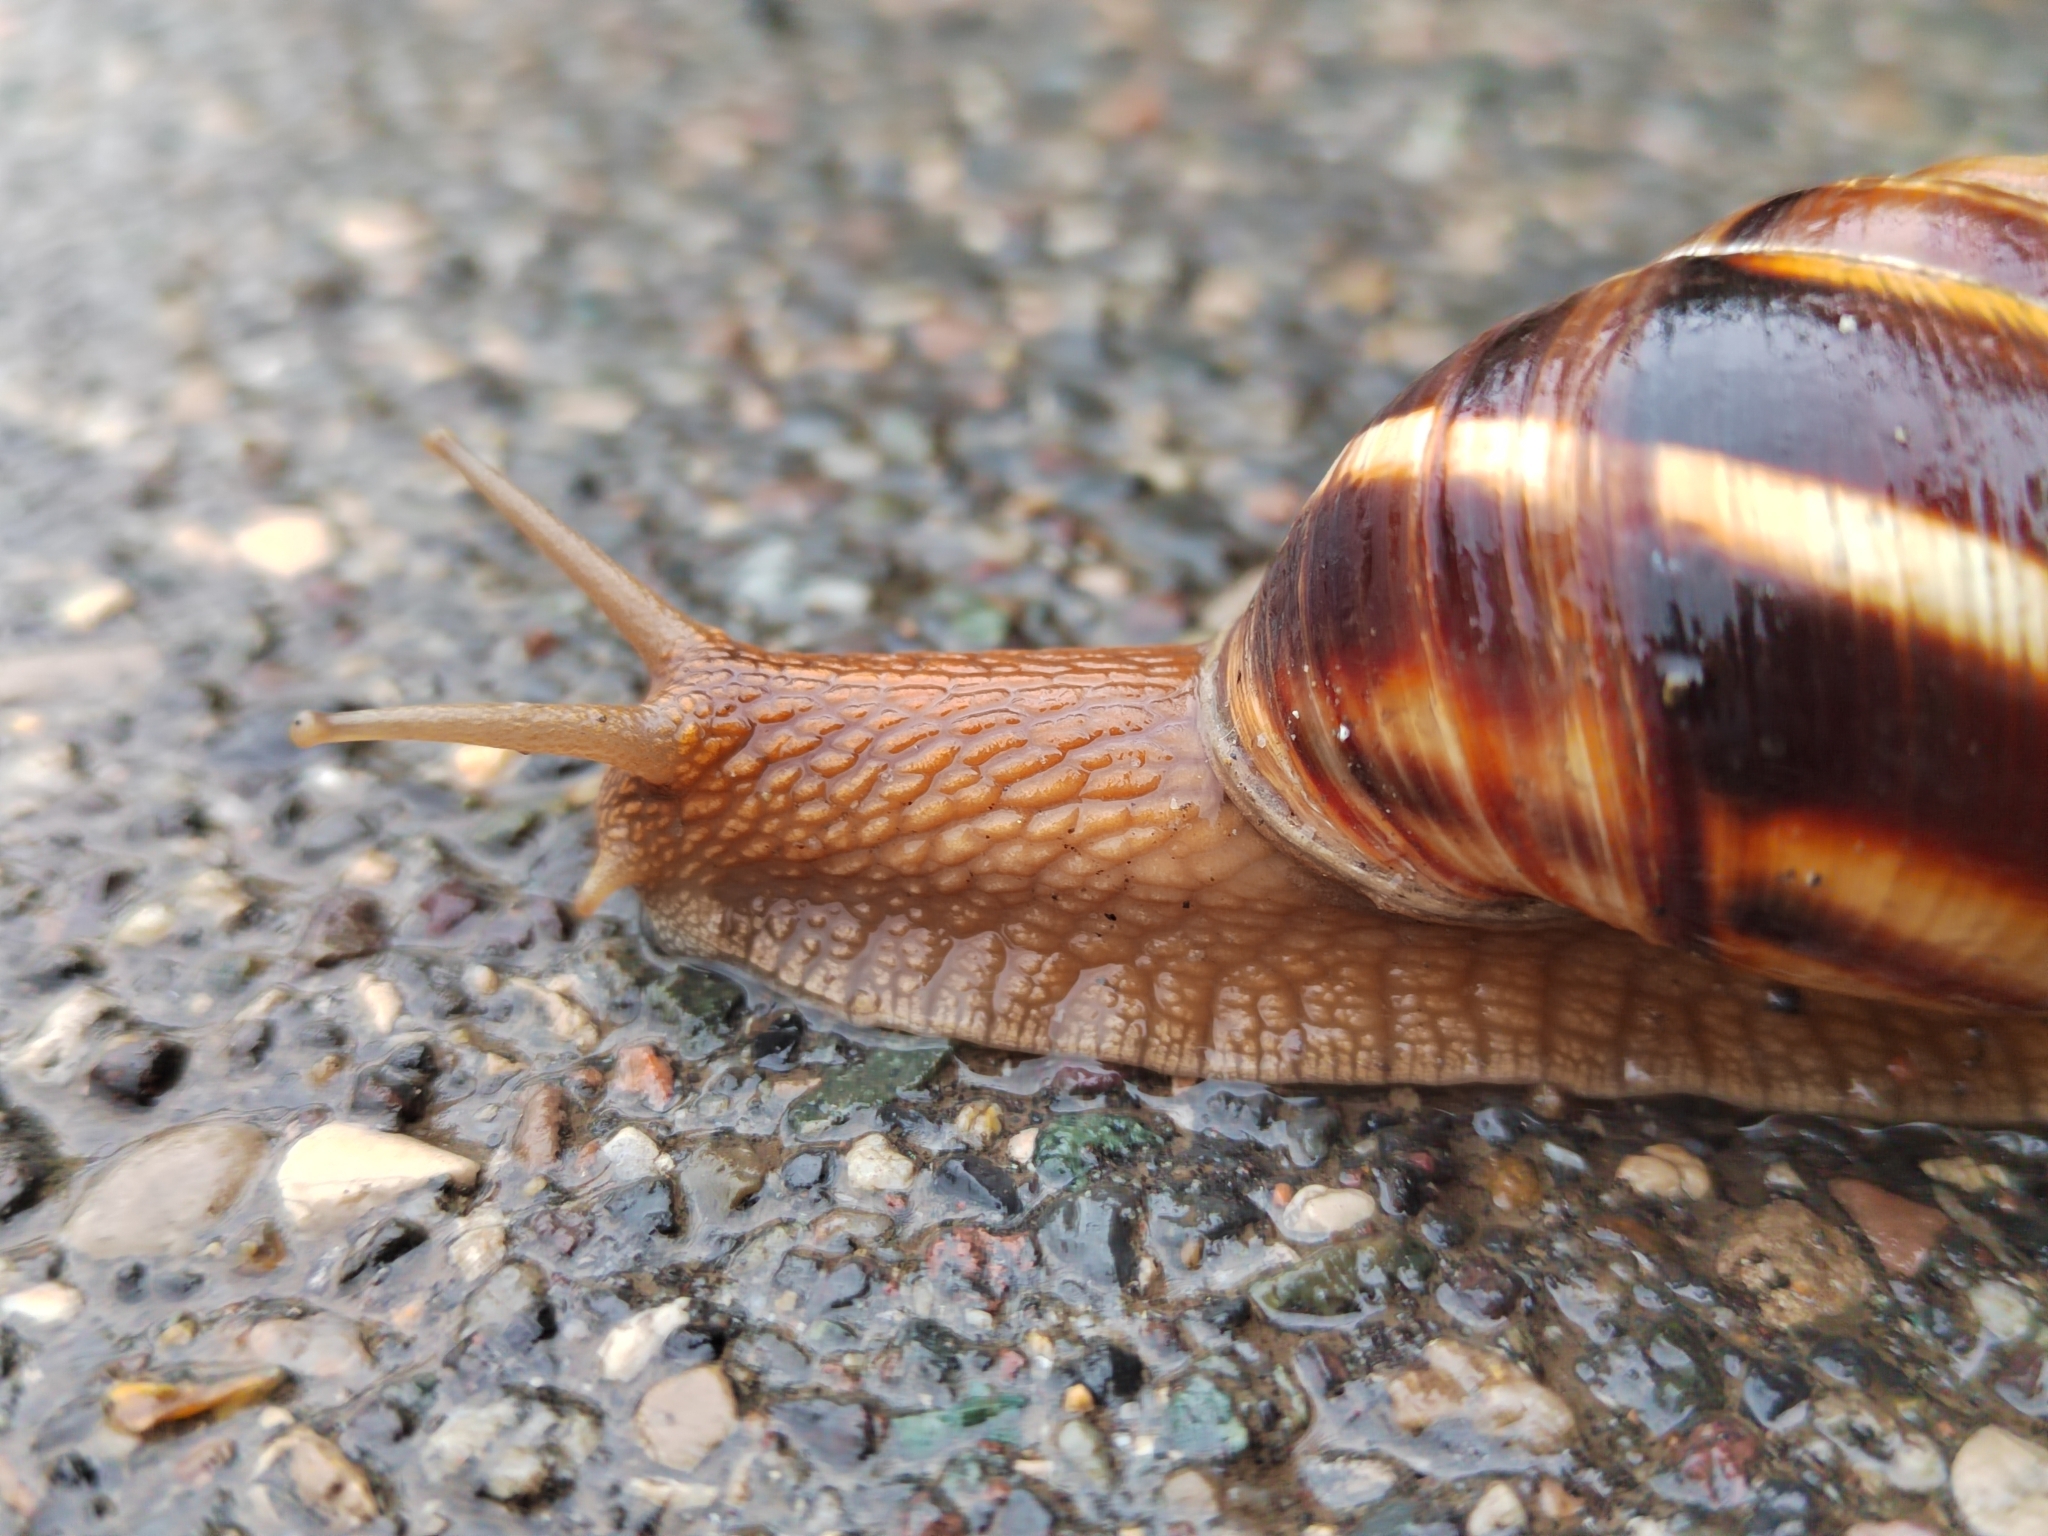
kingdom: Animalia
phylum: Mollusca
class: Gastropoda
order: Stylommatophora
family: Helicidae
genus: Helix
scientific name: Helix lucorum
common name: Turkish snail
